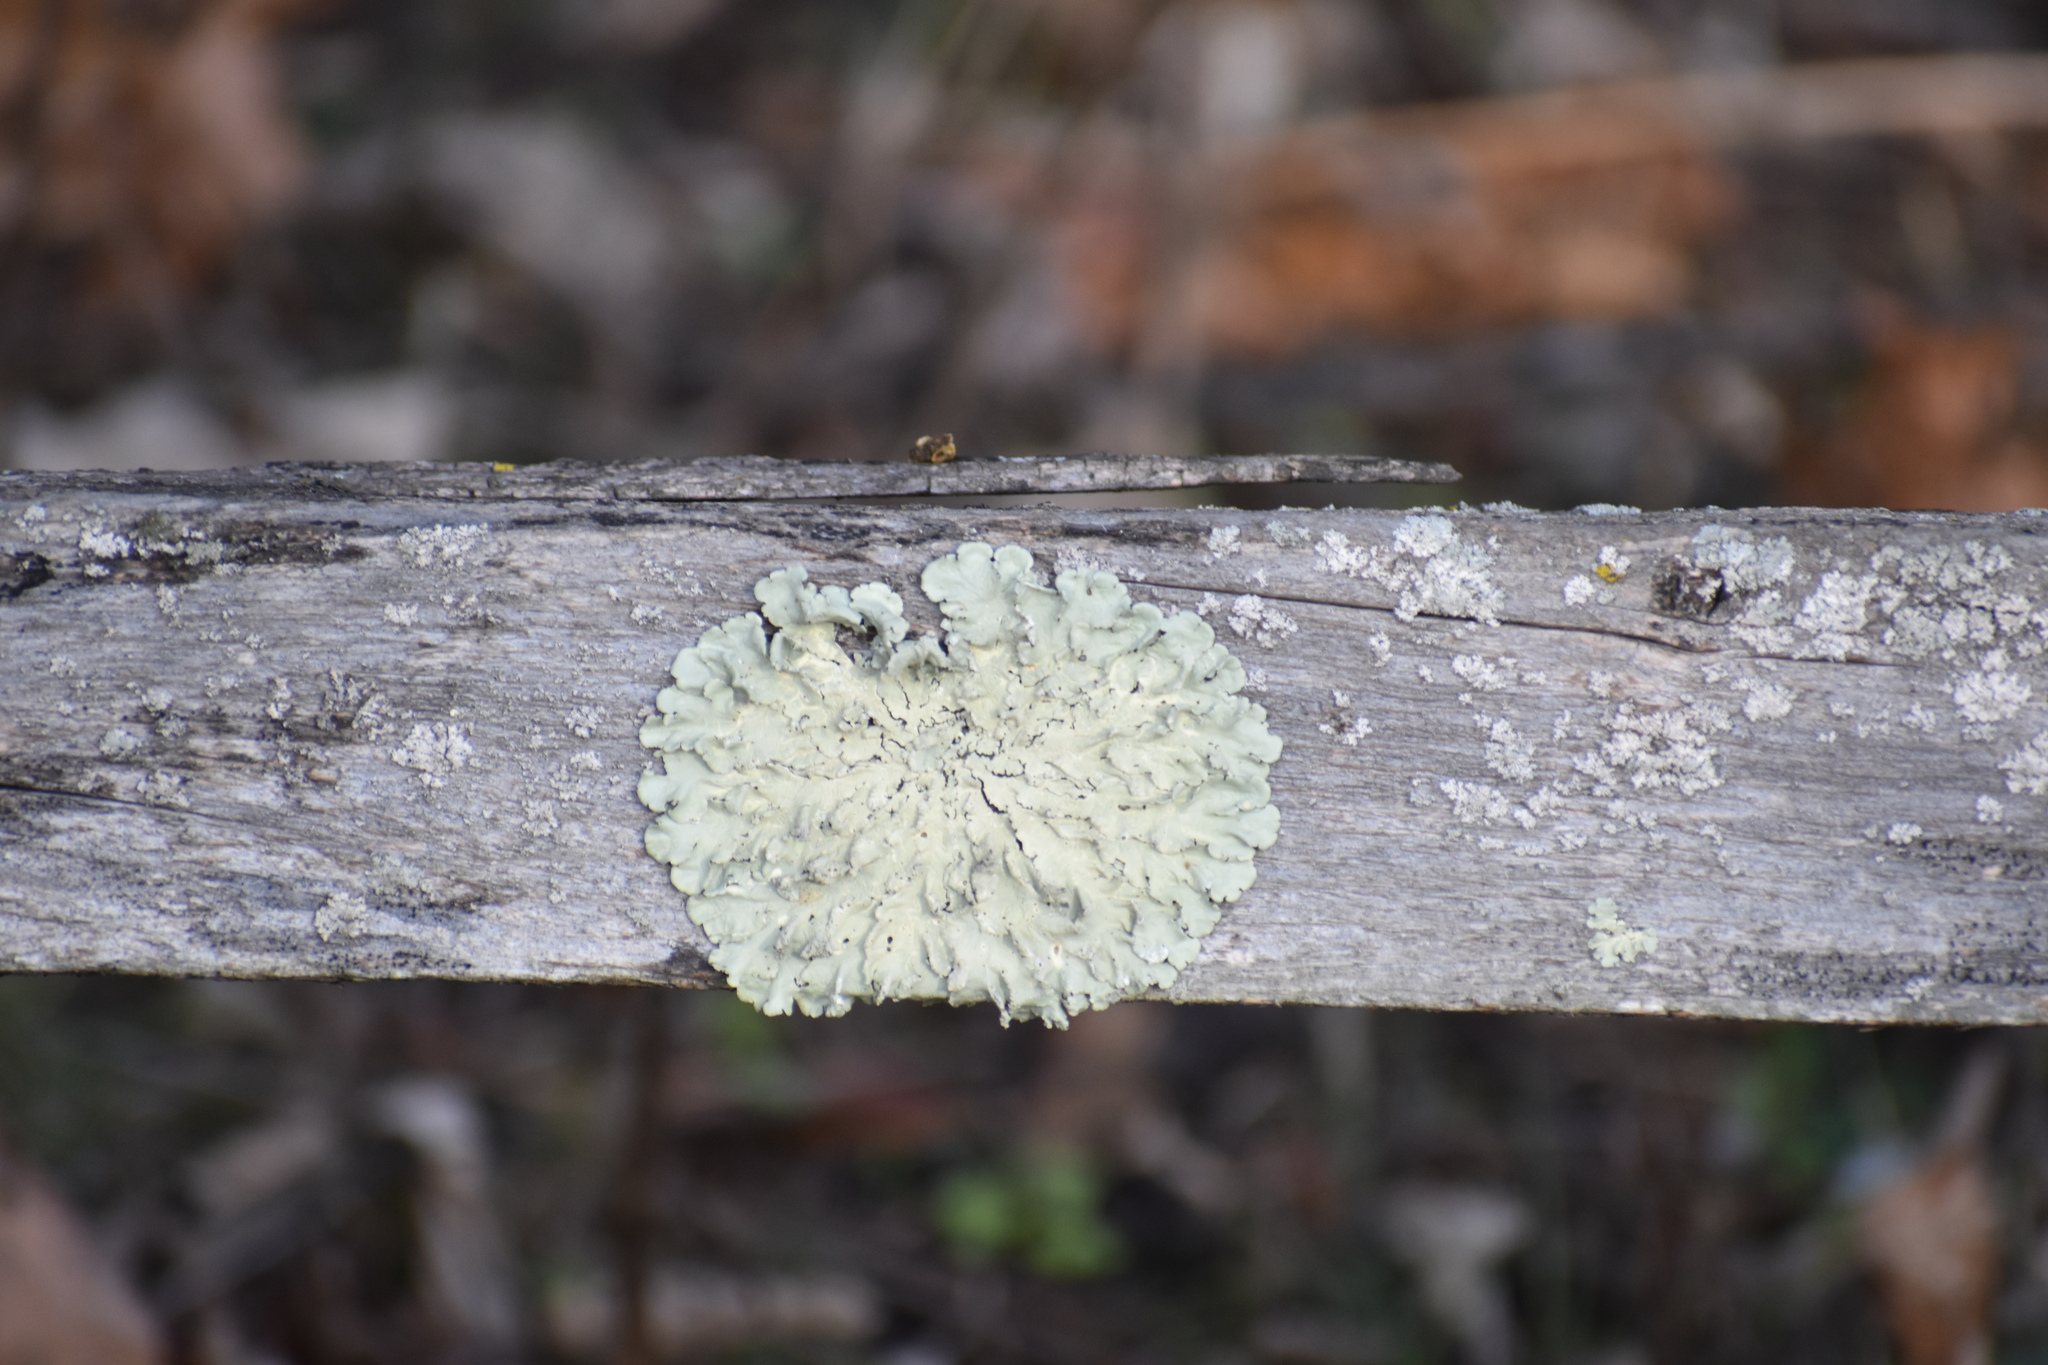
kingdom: Fungi
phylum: Ascomycota
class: Lecanoromycetes
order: Lecanorales
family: Parmeliaceae
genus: Flavoparmelia
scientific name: Flavoparmelia caperata
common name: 40-mile per hour lichen
